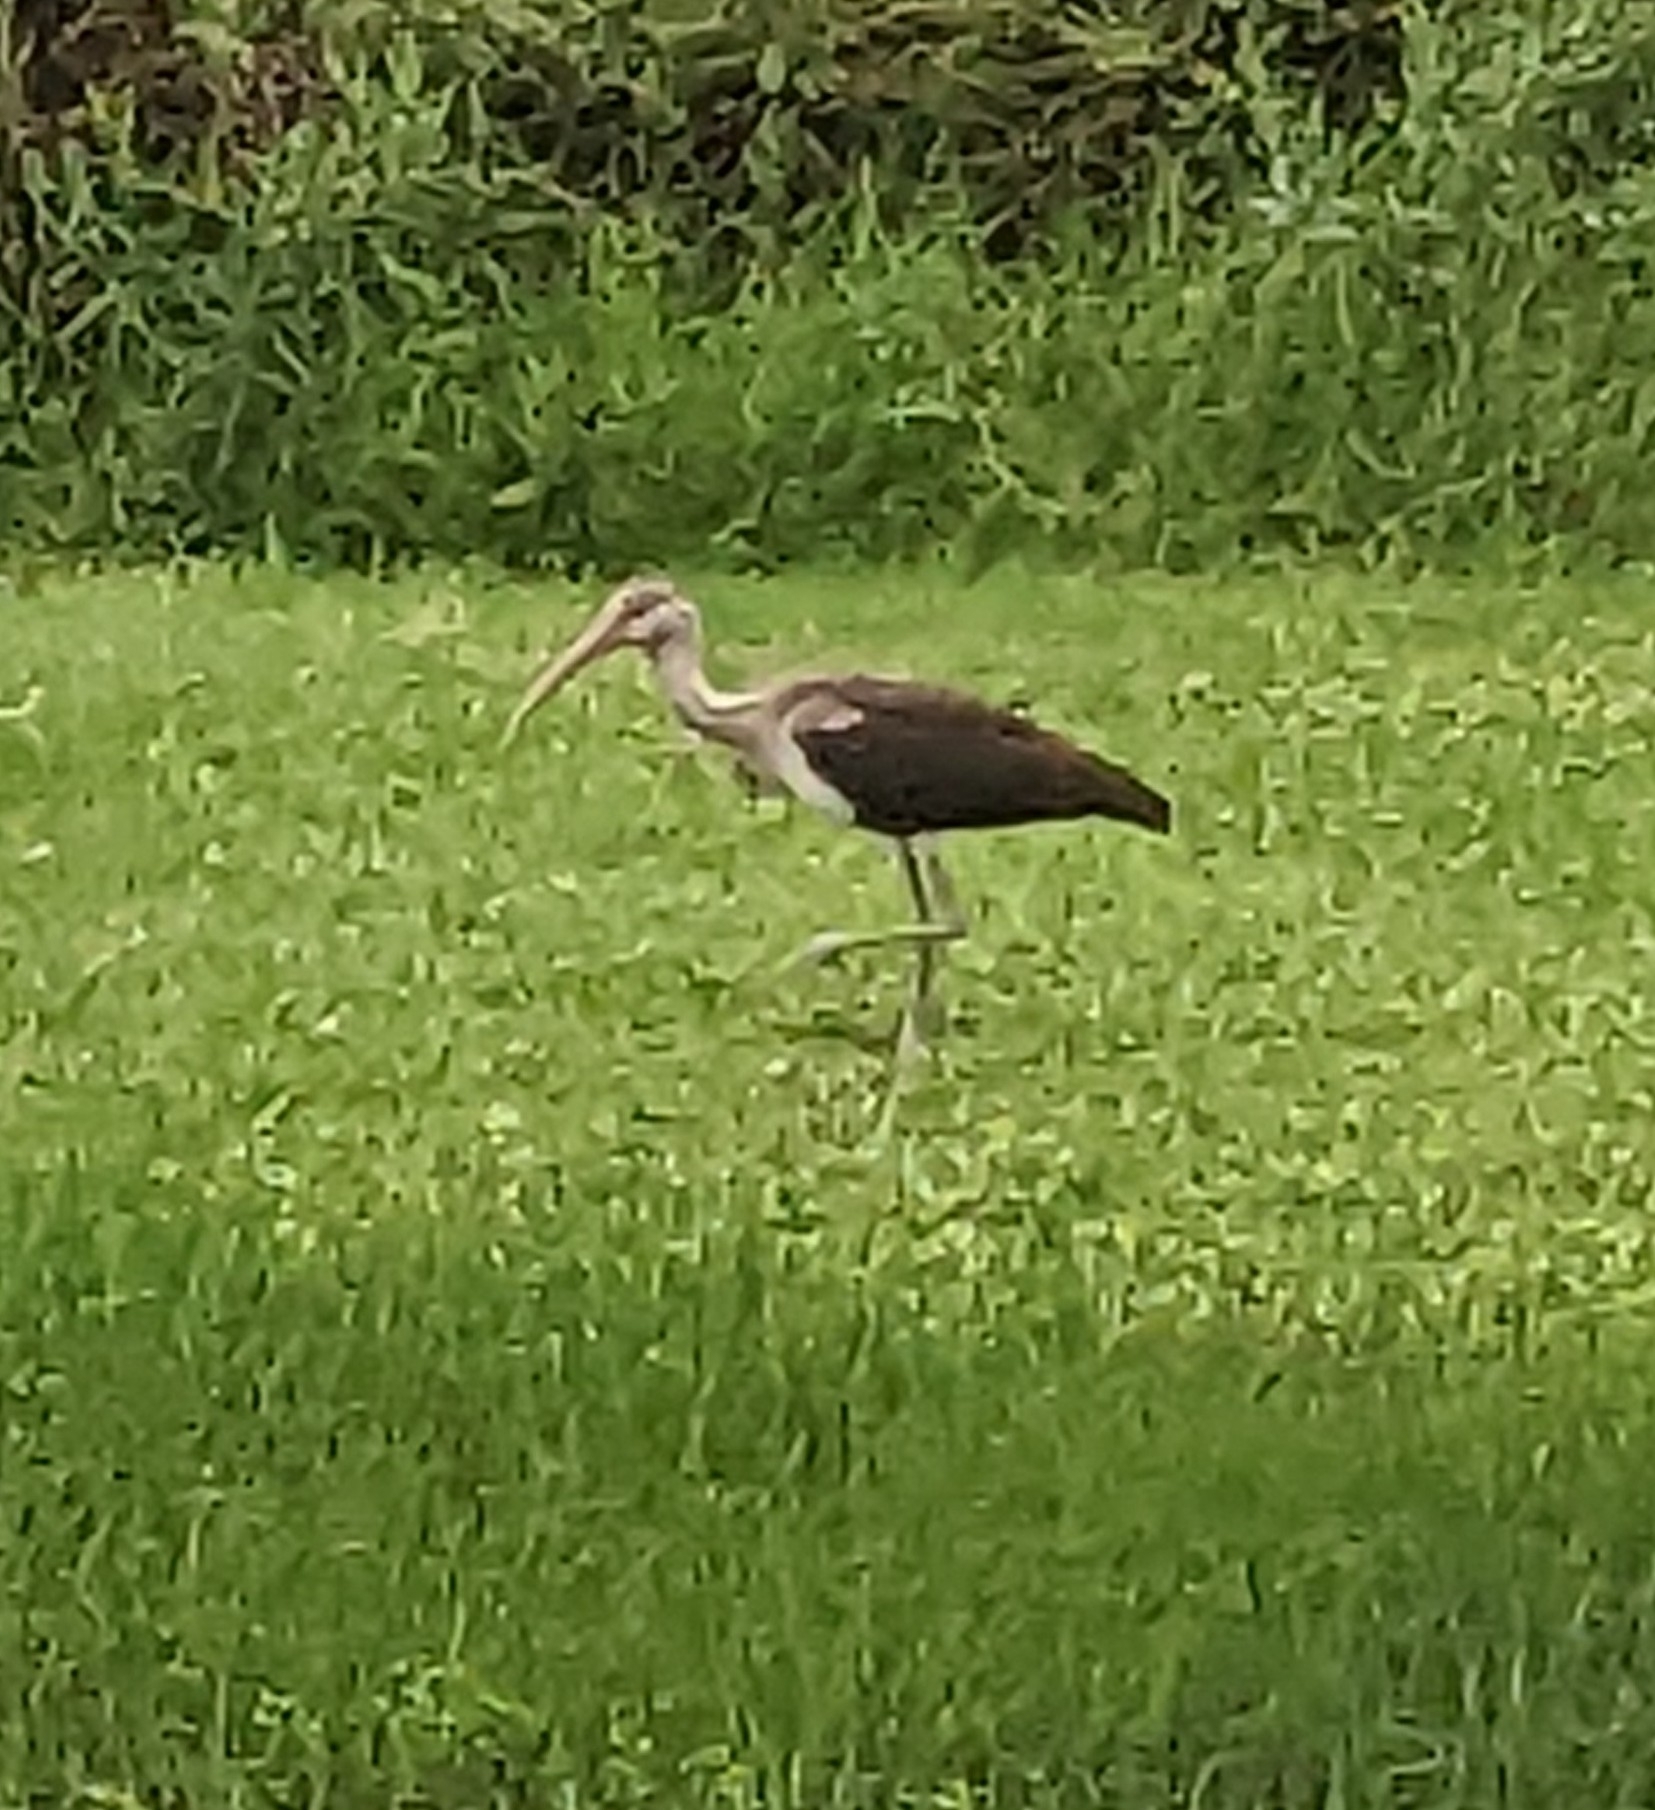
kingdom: Animalia
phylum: Chordata
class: Aves
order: Pelecaniformes
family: Threskiornithidae
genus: Eudocimus
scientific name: Eudocimus albus
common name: White ibis
